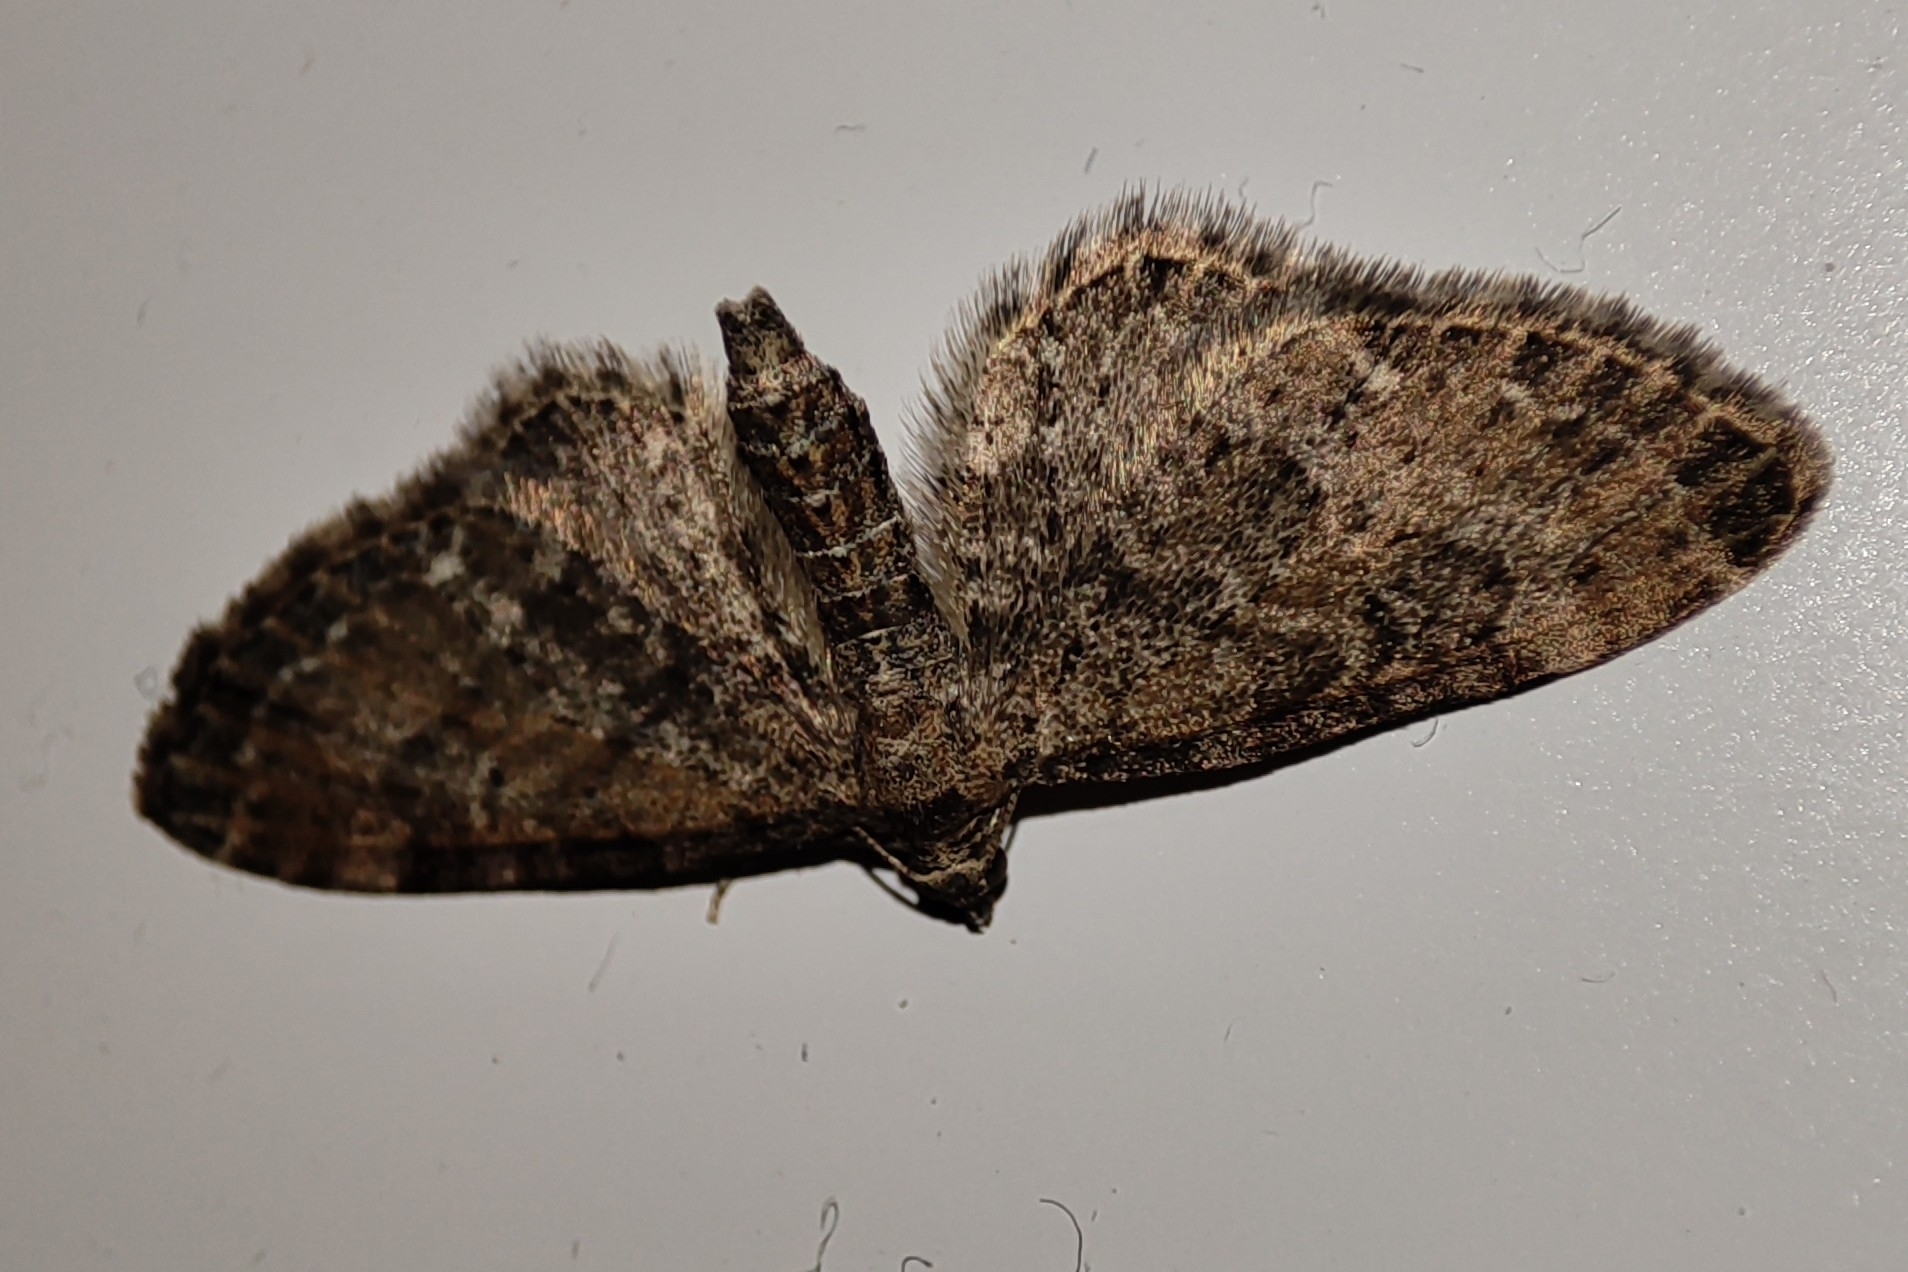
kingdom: Animalia
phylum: Arthropoda
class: Insecta
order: Lepidoptera
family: Geometridae
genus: Eupithecia
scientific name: Eupithecia vulgata
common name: Common pug
